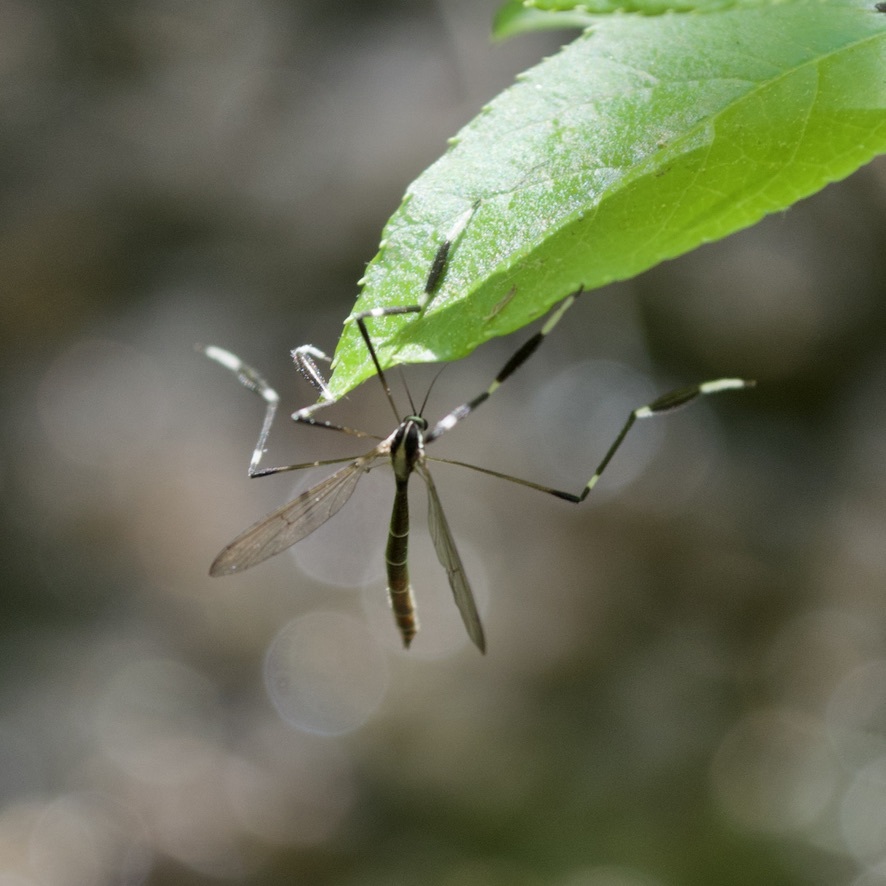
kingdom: Animalia
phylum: Arthropoda
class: Insecta
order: Diptera
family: Ptychopteridae
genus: Bittacomorpha
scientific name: Bittacomorpha clavipes
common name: Eastern phantom crane fly
